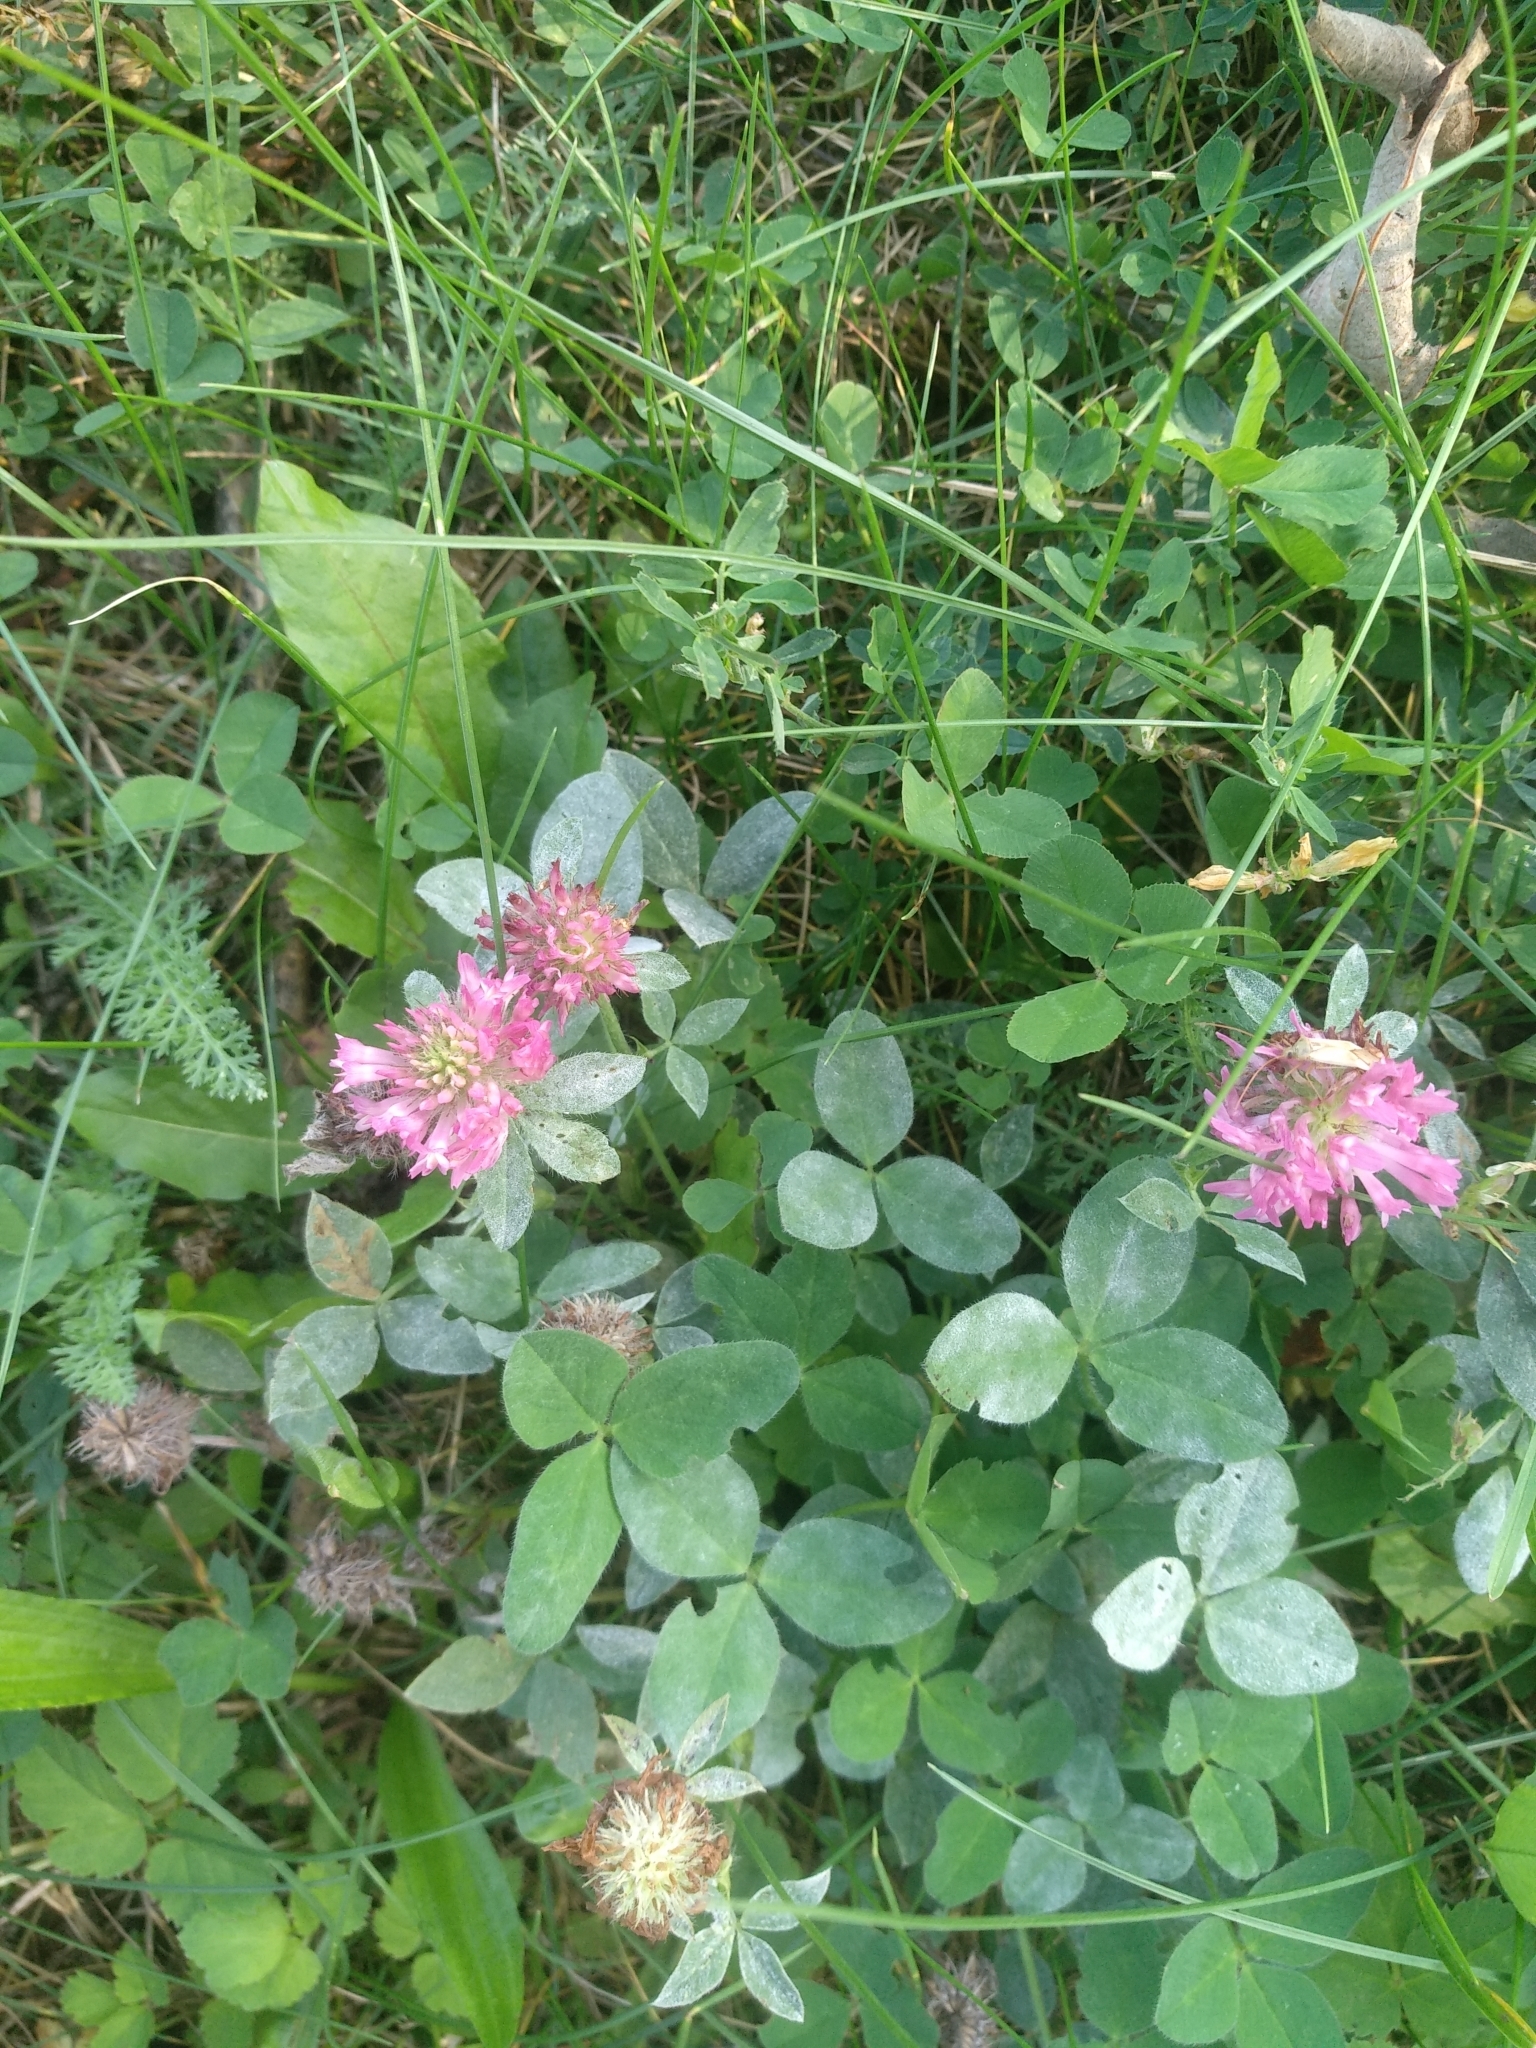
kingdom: Plantae
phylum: Tracheophyta
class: Magnoliopsida
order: Fabales
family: Fabaceae
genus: Trifolium
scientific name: Trifolium pratense
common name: Red clover
